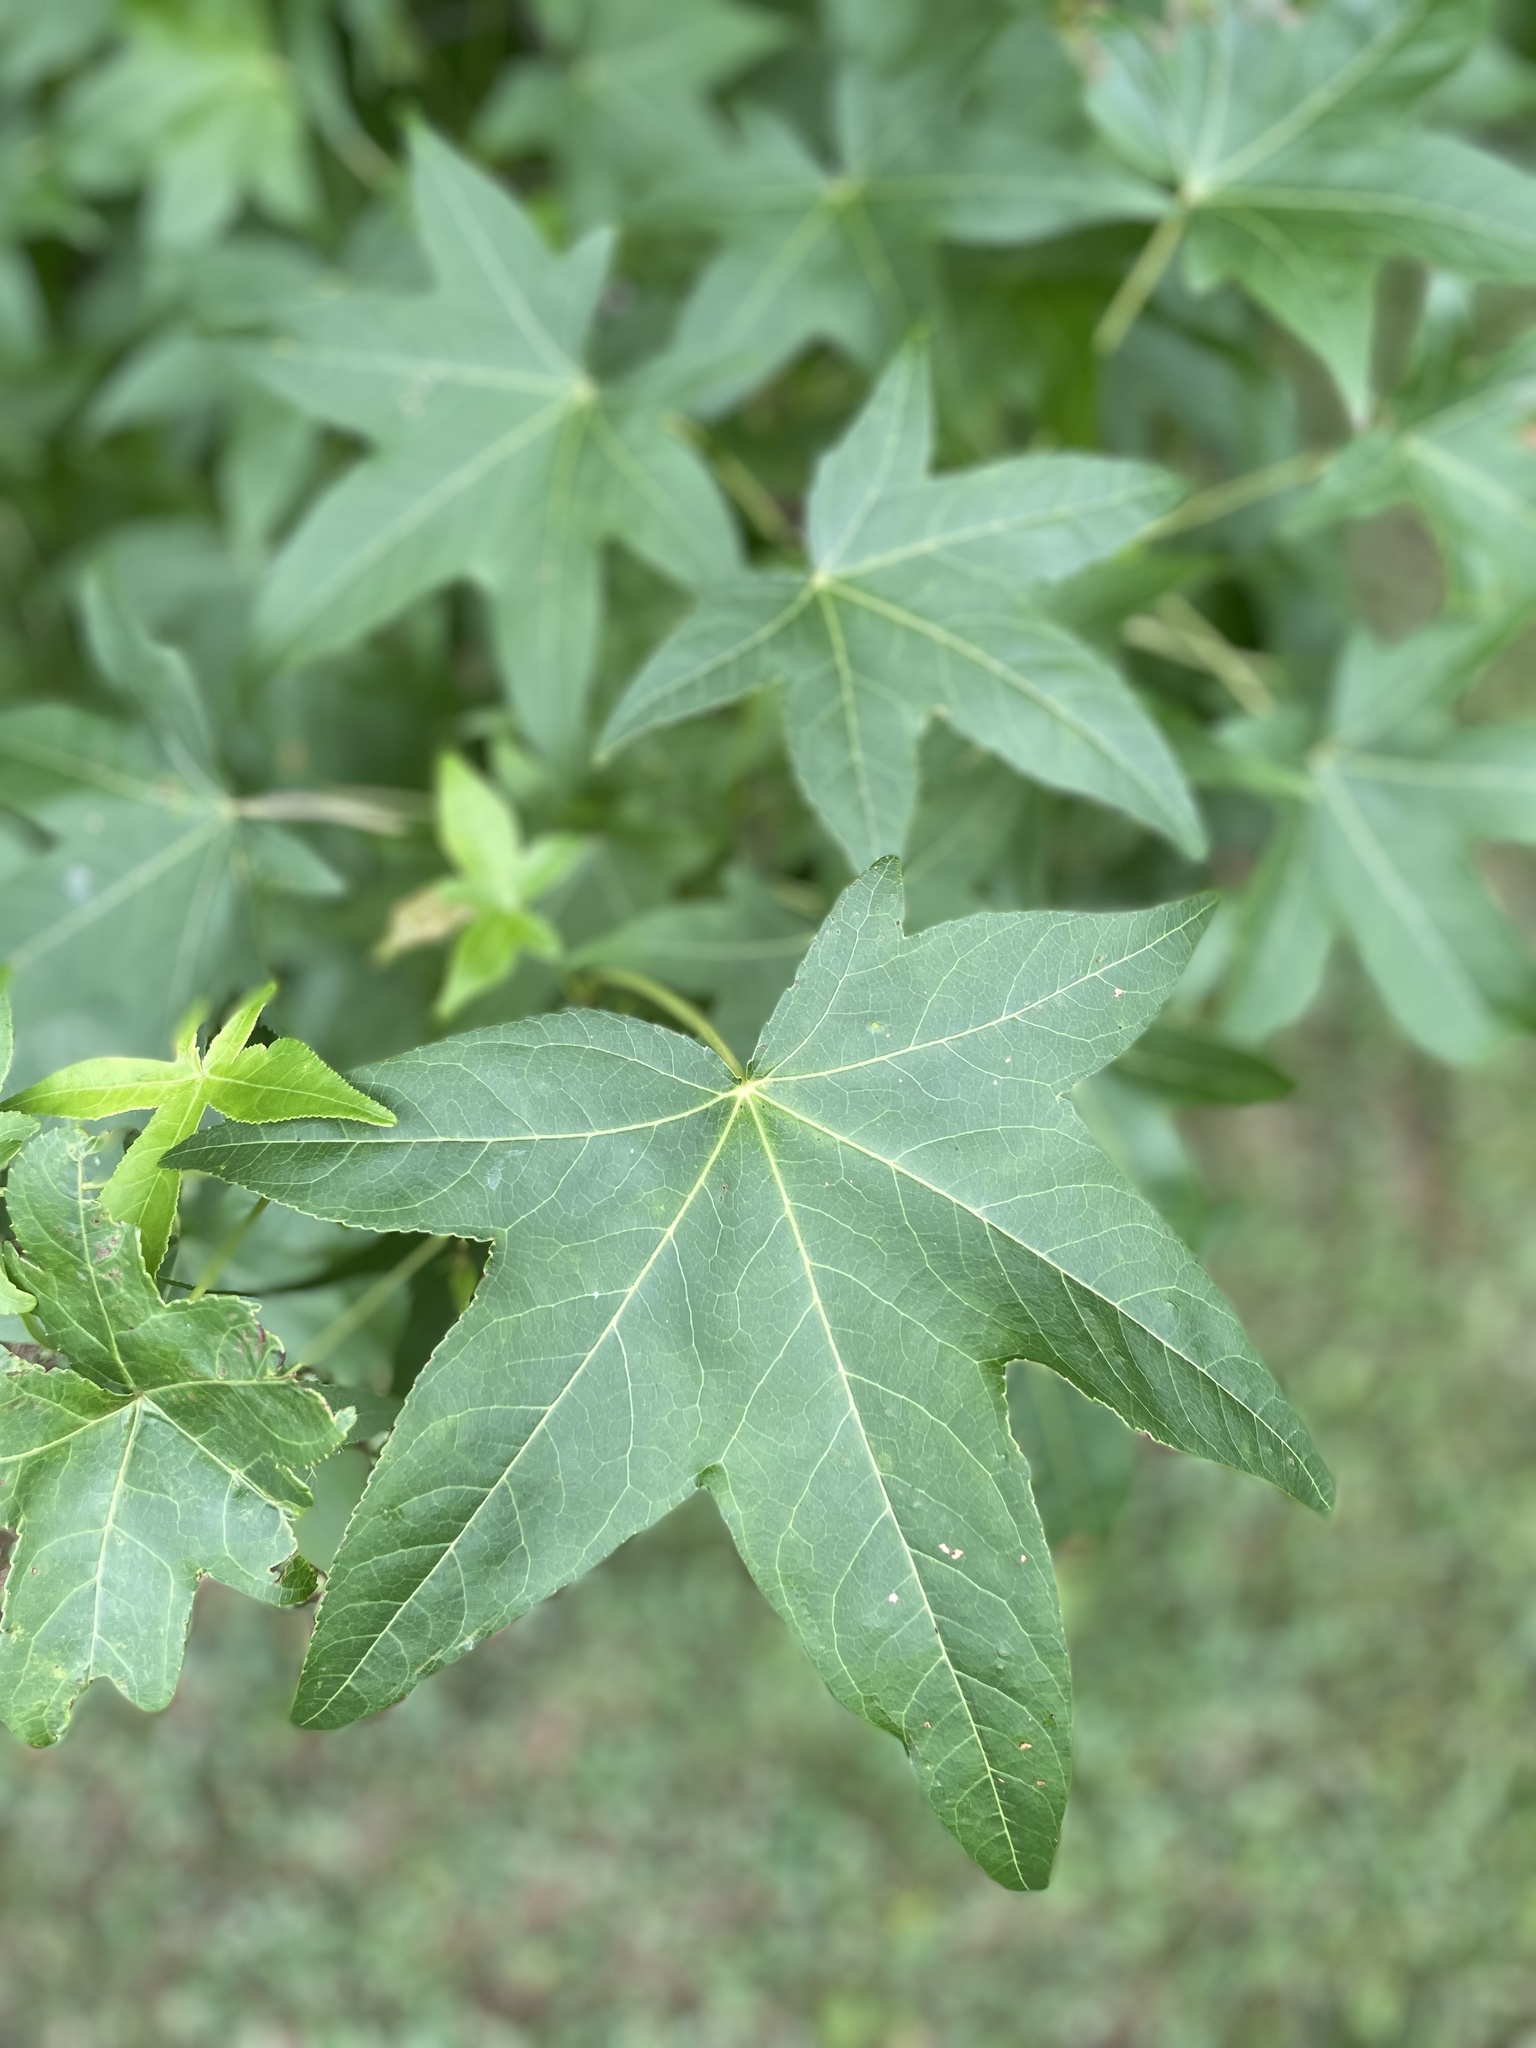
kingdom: Plantae
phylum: Tracheophyta
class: Magnoliopsida
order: Saxifragales
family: Altingiaceae
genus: Liquidambar
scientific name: Liquidambar styraciflua
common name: Sweet gum
